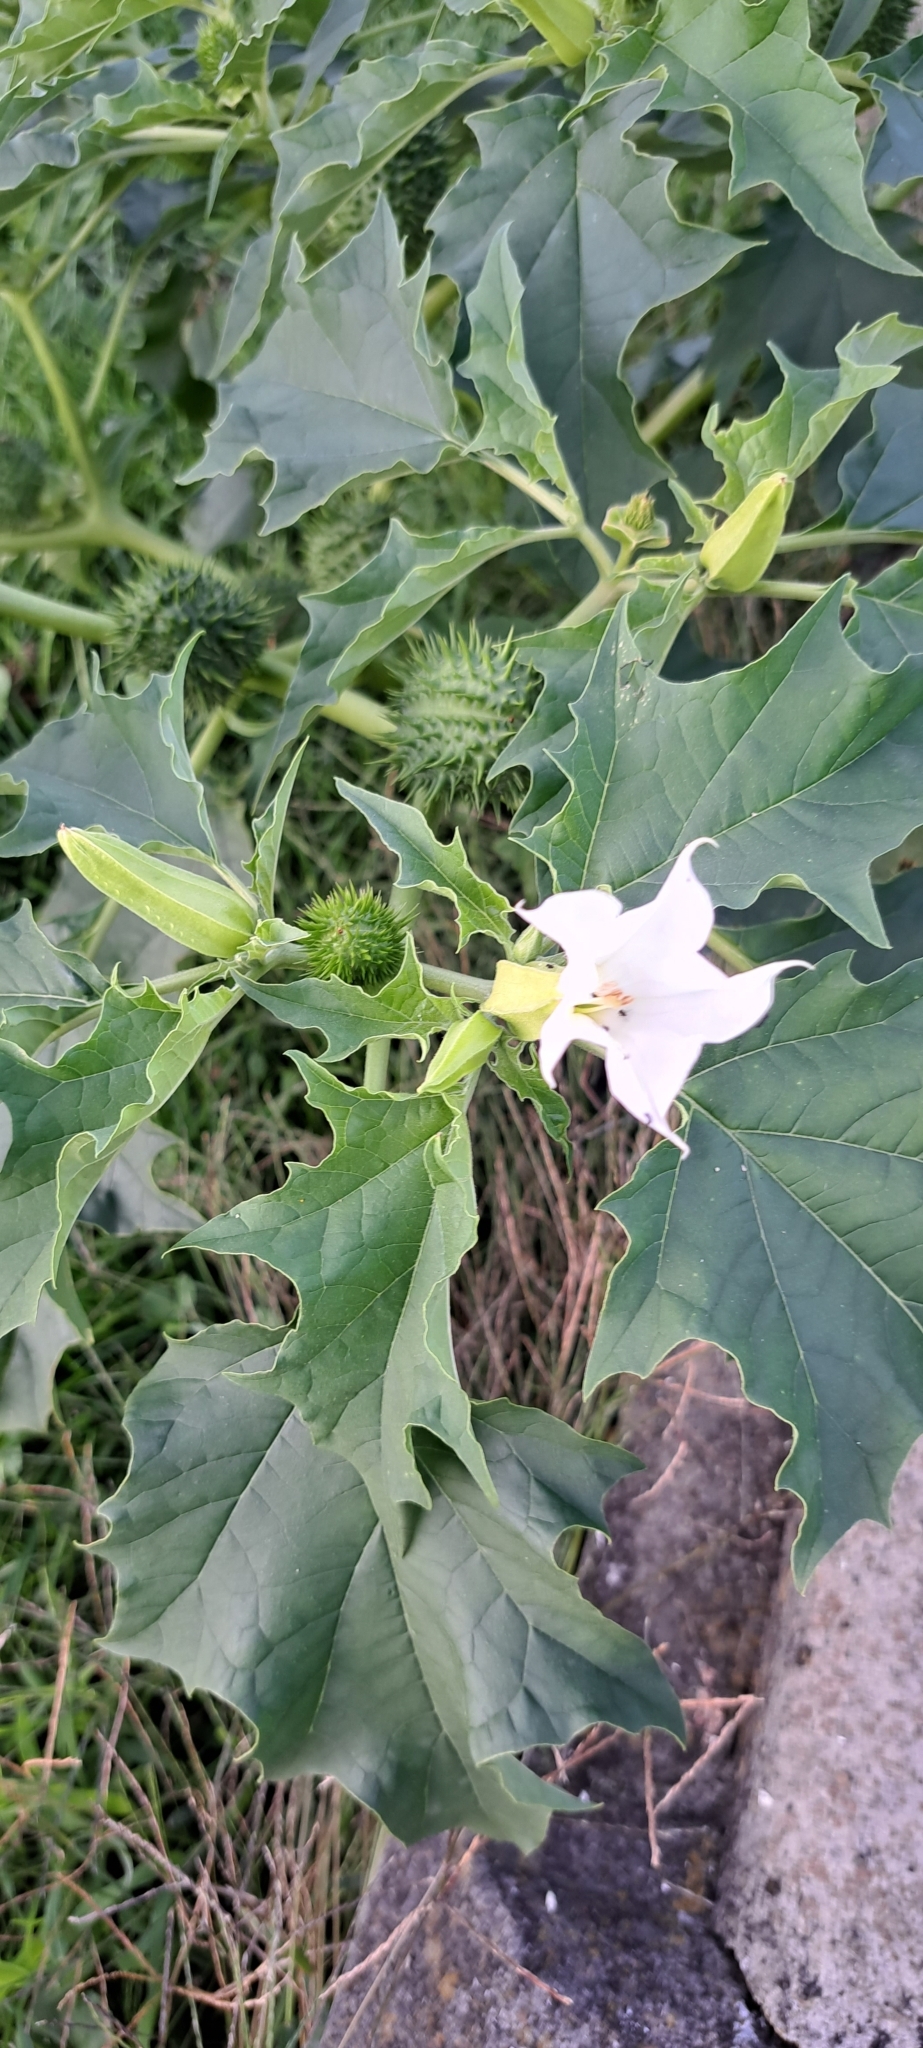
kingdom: Plantae
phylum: Tracheophyta
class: Magnoliopsida
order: Solanales
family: Solanaceae
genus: Datura
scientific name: Datura stramonium
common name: Thorn-apple
